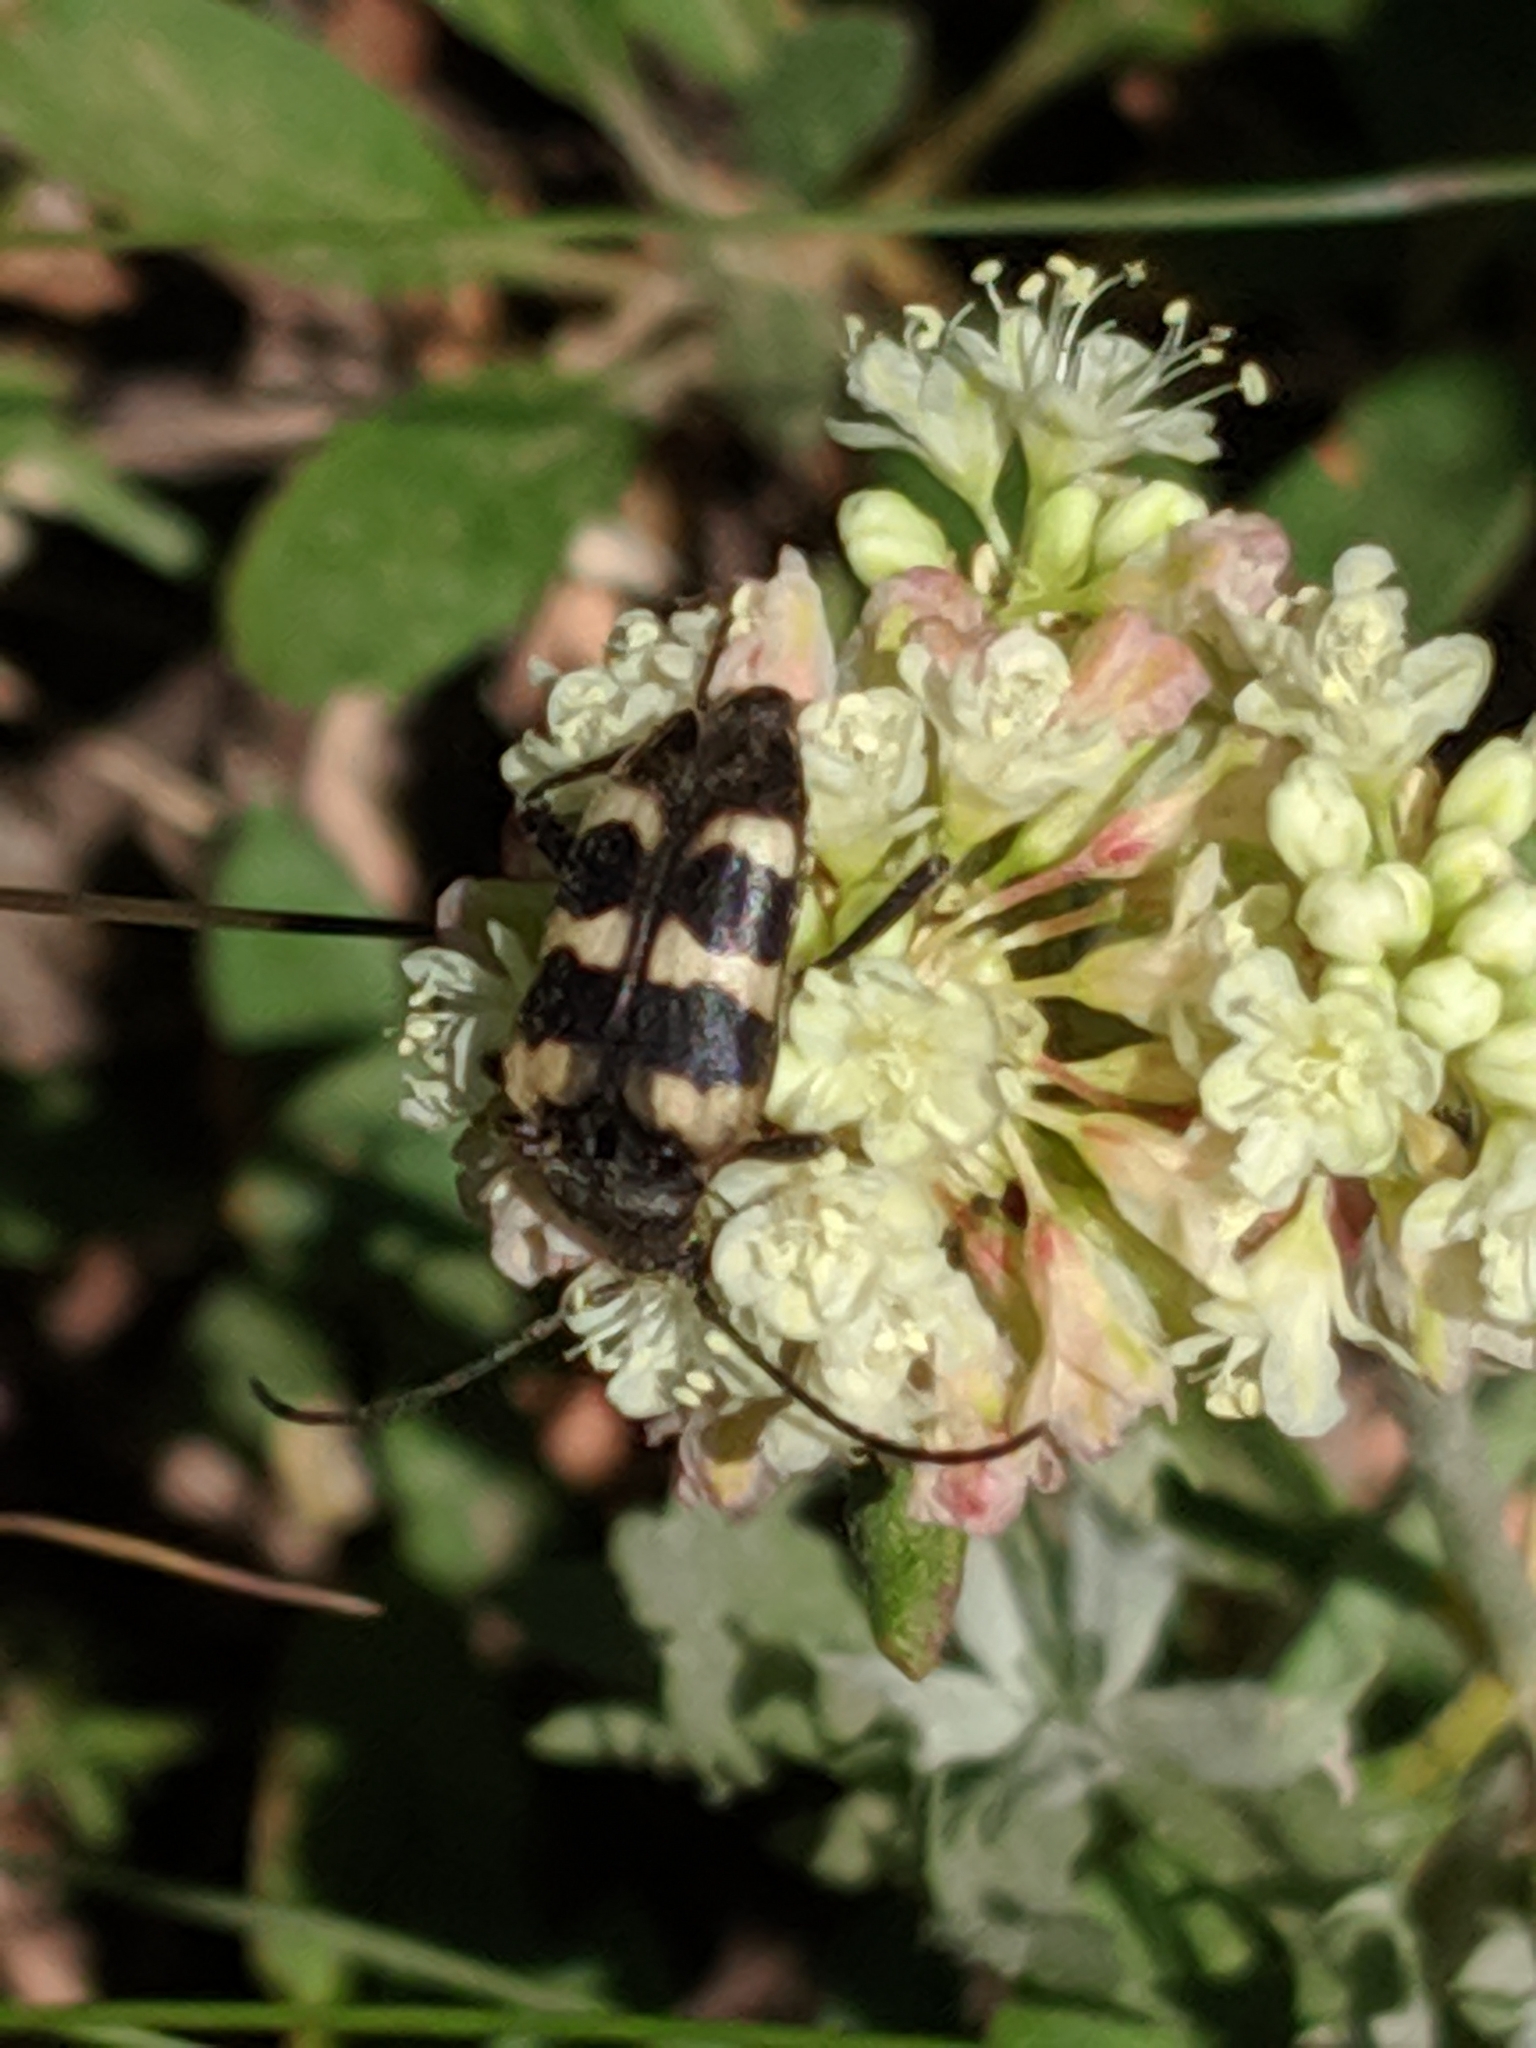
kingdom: Animalia
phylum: Arthropoda
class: Insecta
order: Coleoptera
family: Cerambycidae
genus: Judolia
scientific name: Judolia instabilis
